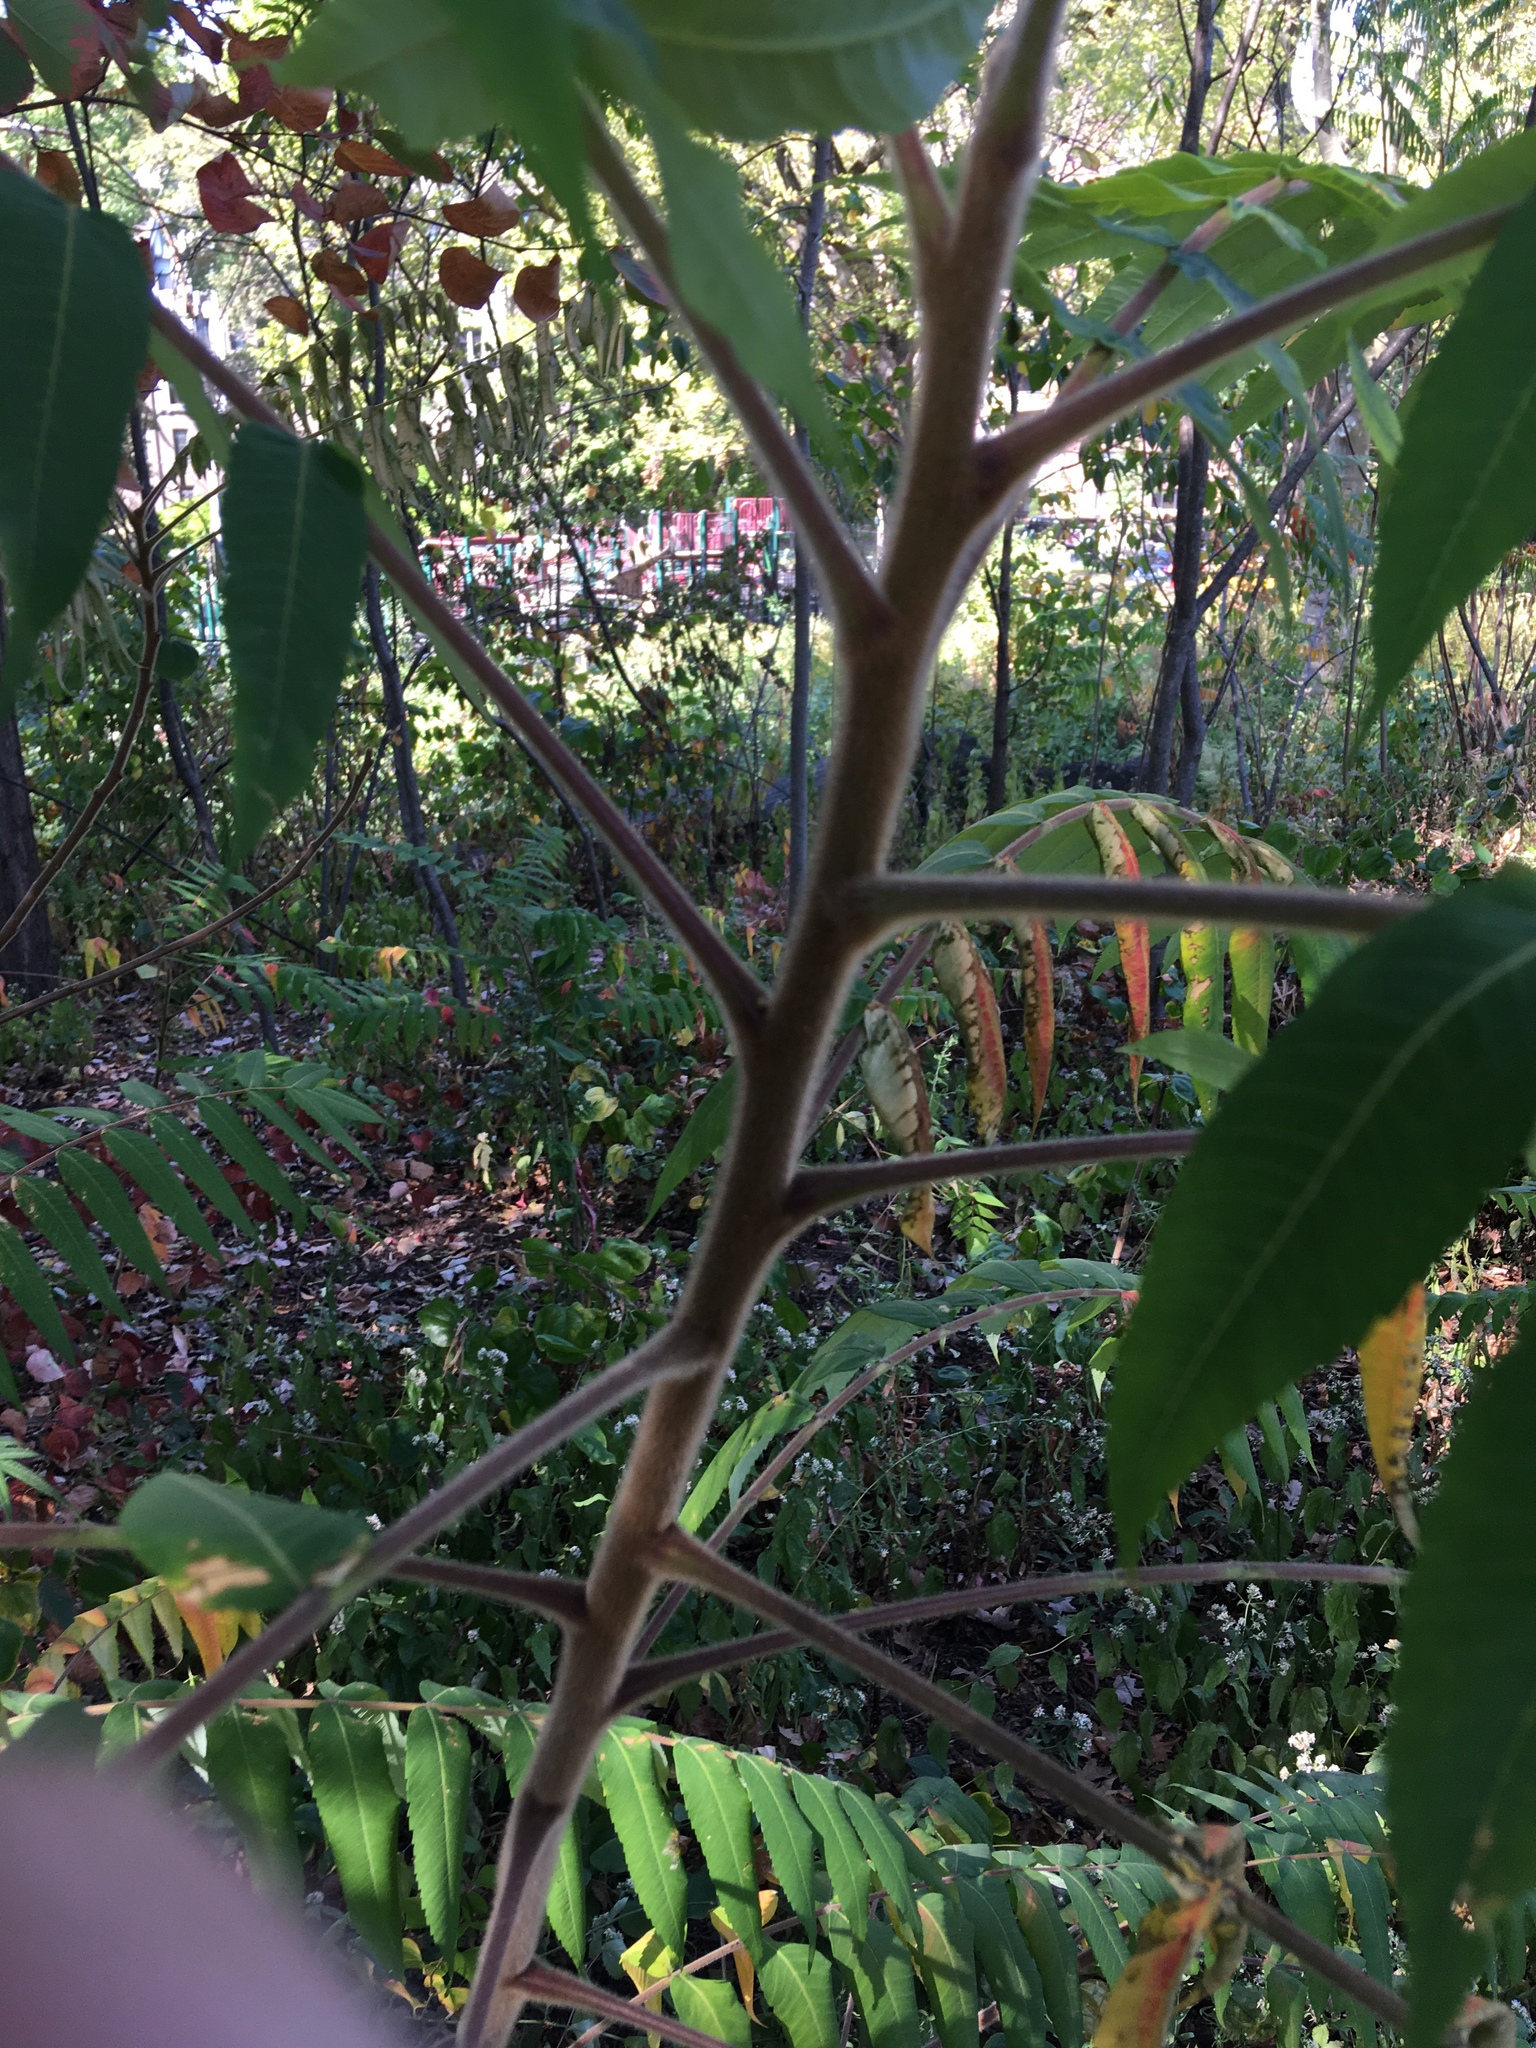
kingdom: Plantae
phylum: Tracheophyta
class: Magnoliopsida
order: Sapindales
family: Anacardiaceae
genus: Rhus
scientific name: Rhus typhina
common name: Staghorn sumac
